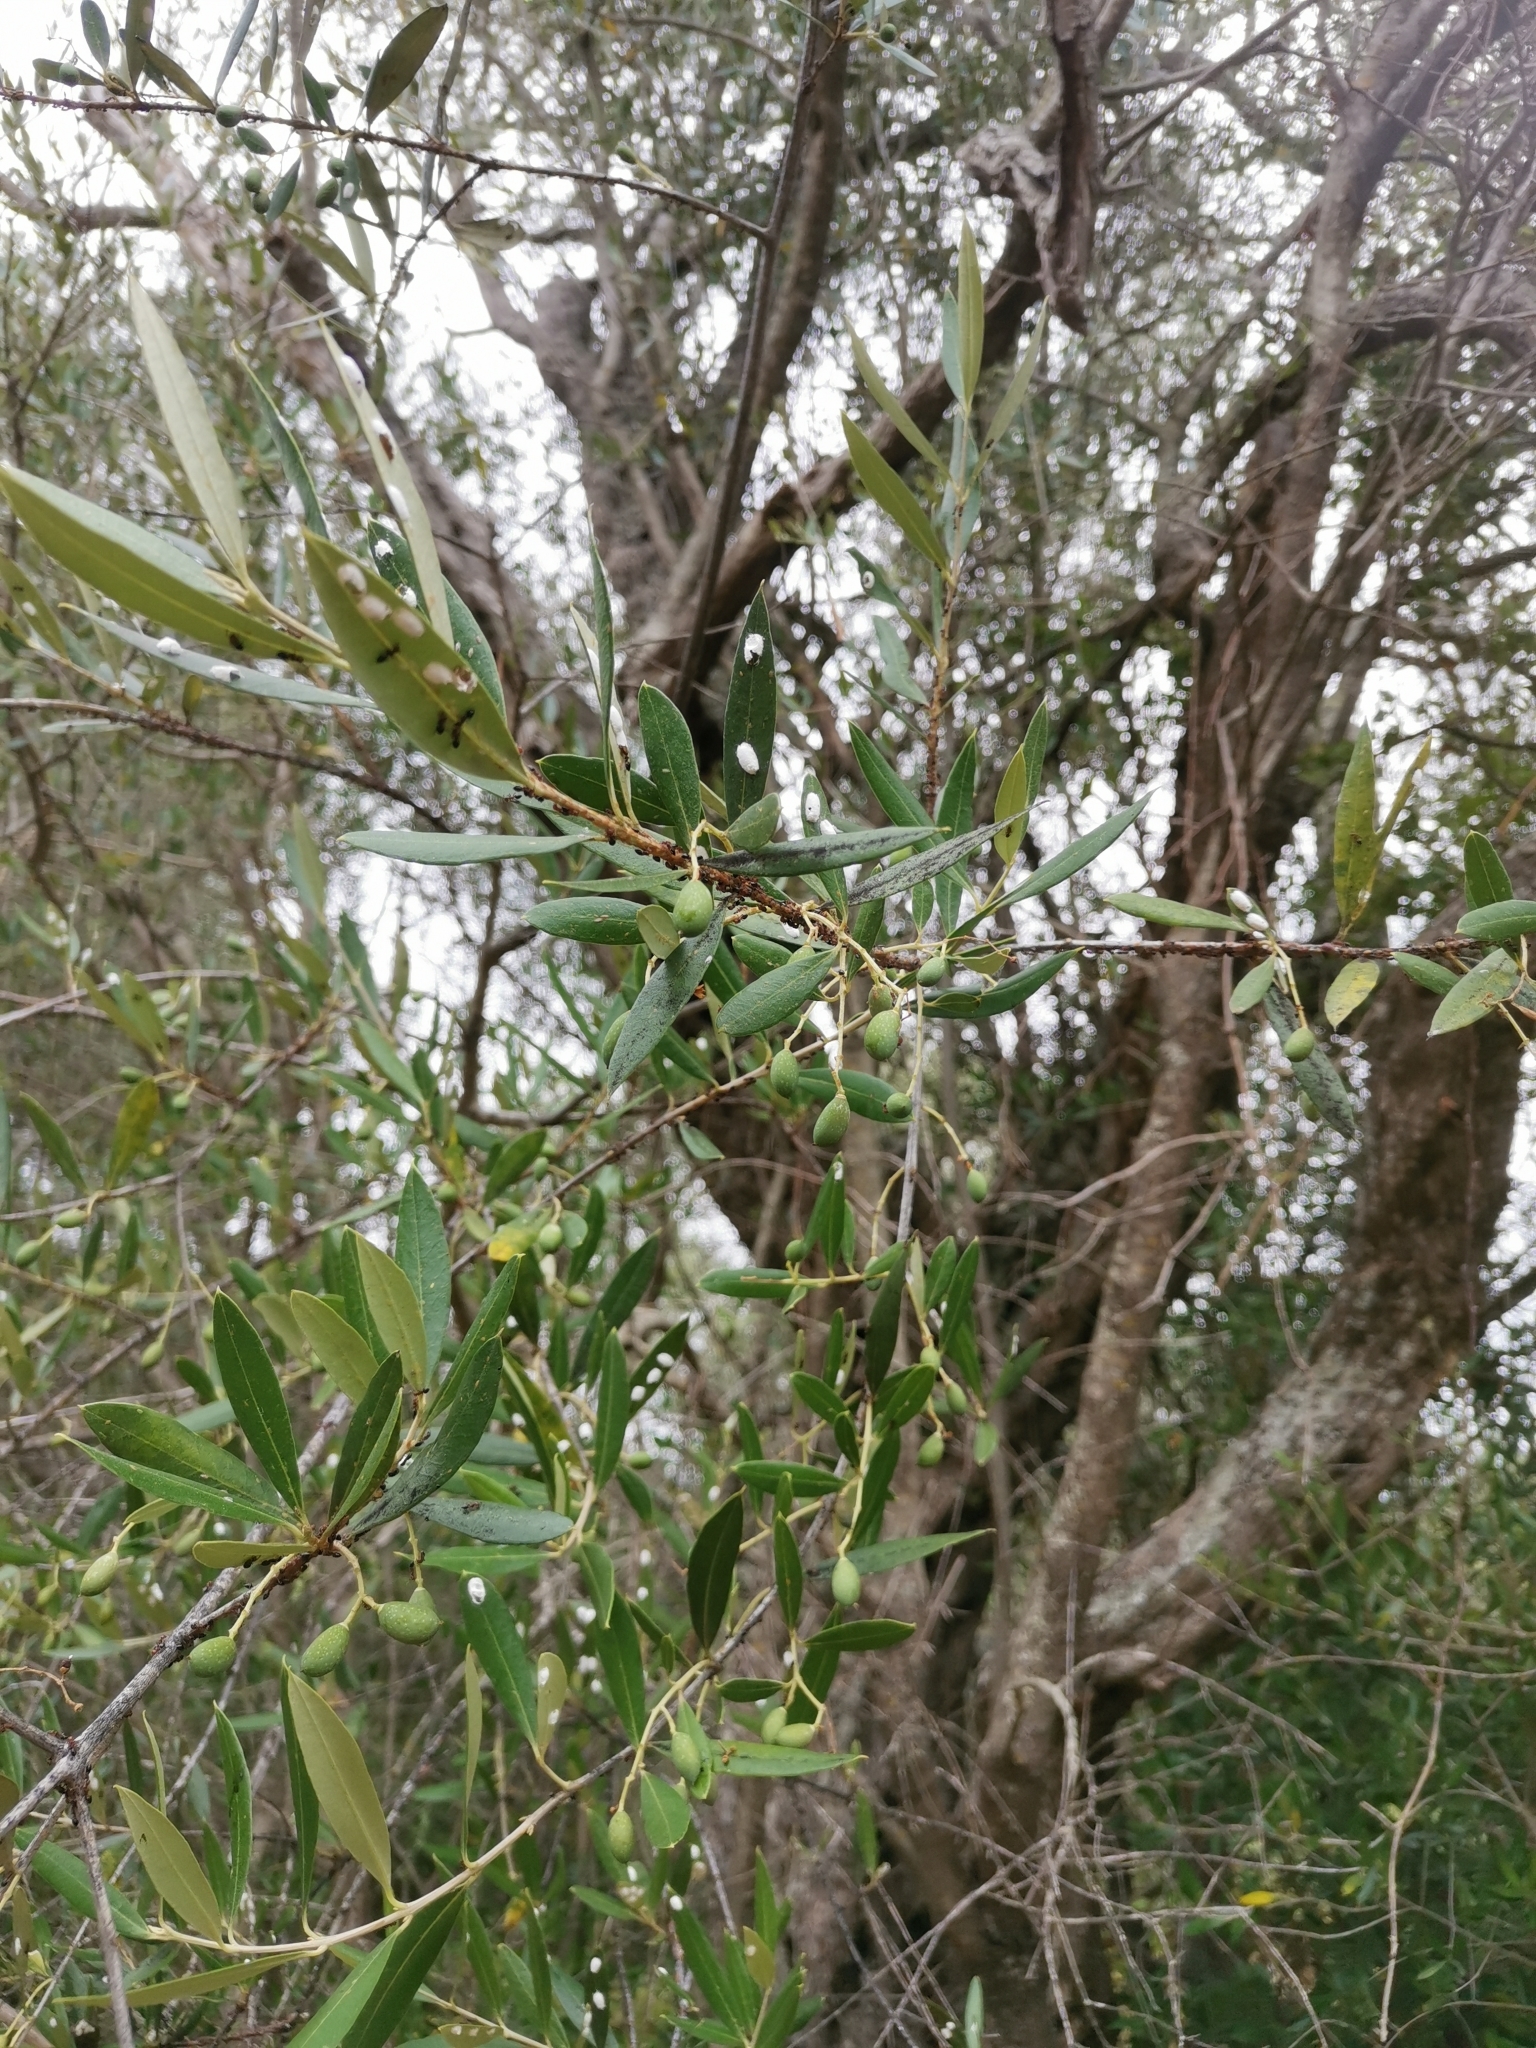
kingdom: Plantae
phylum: Tracheophyta
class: Magnoliopsida
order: Lamiales
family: Oleaceae
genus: Olea
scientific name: Olea europaea
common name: Olive
